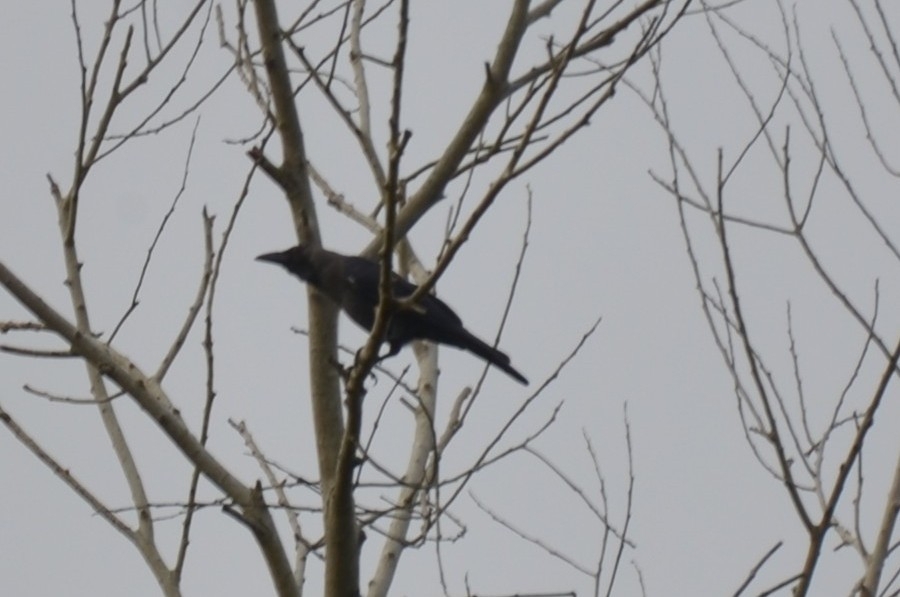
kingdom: Animalia
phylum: Chordata
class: Aves
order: Passeriformes
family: Corvidae
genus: Corvus
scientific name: Corvus splendens
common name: House crow
